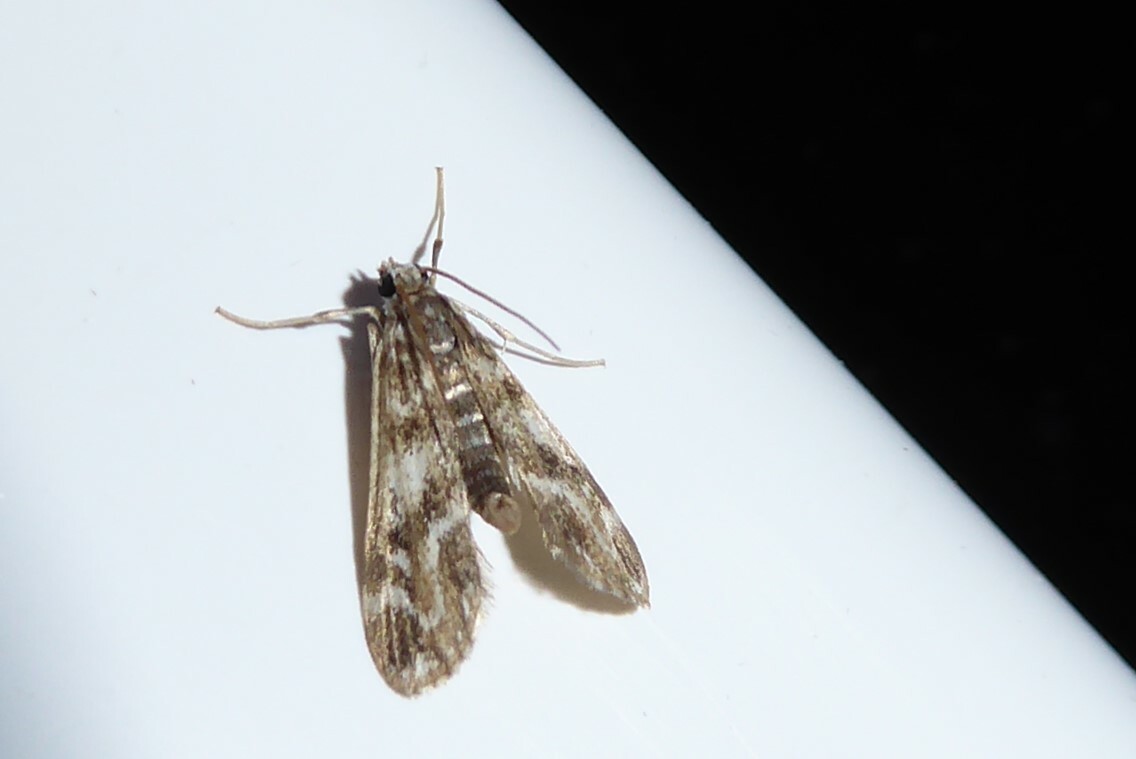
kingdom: Animalia
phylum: Arthropoda
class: Insecta
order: Lepidoptera
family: Crambidae
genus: Hygraula
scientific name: Hygraula nitens
